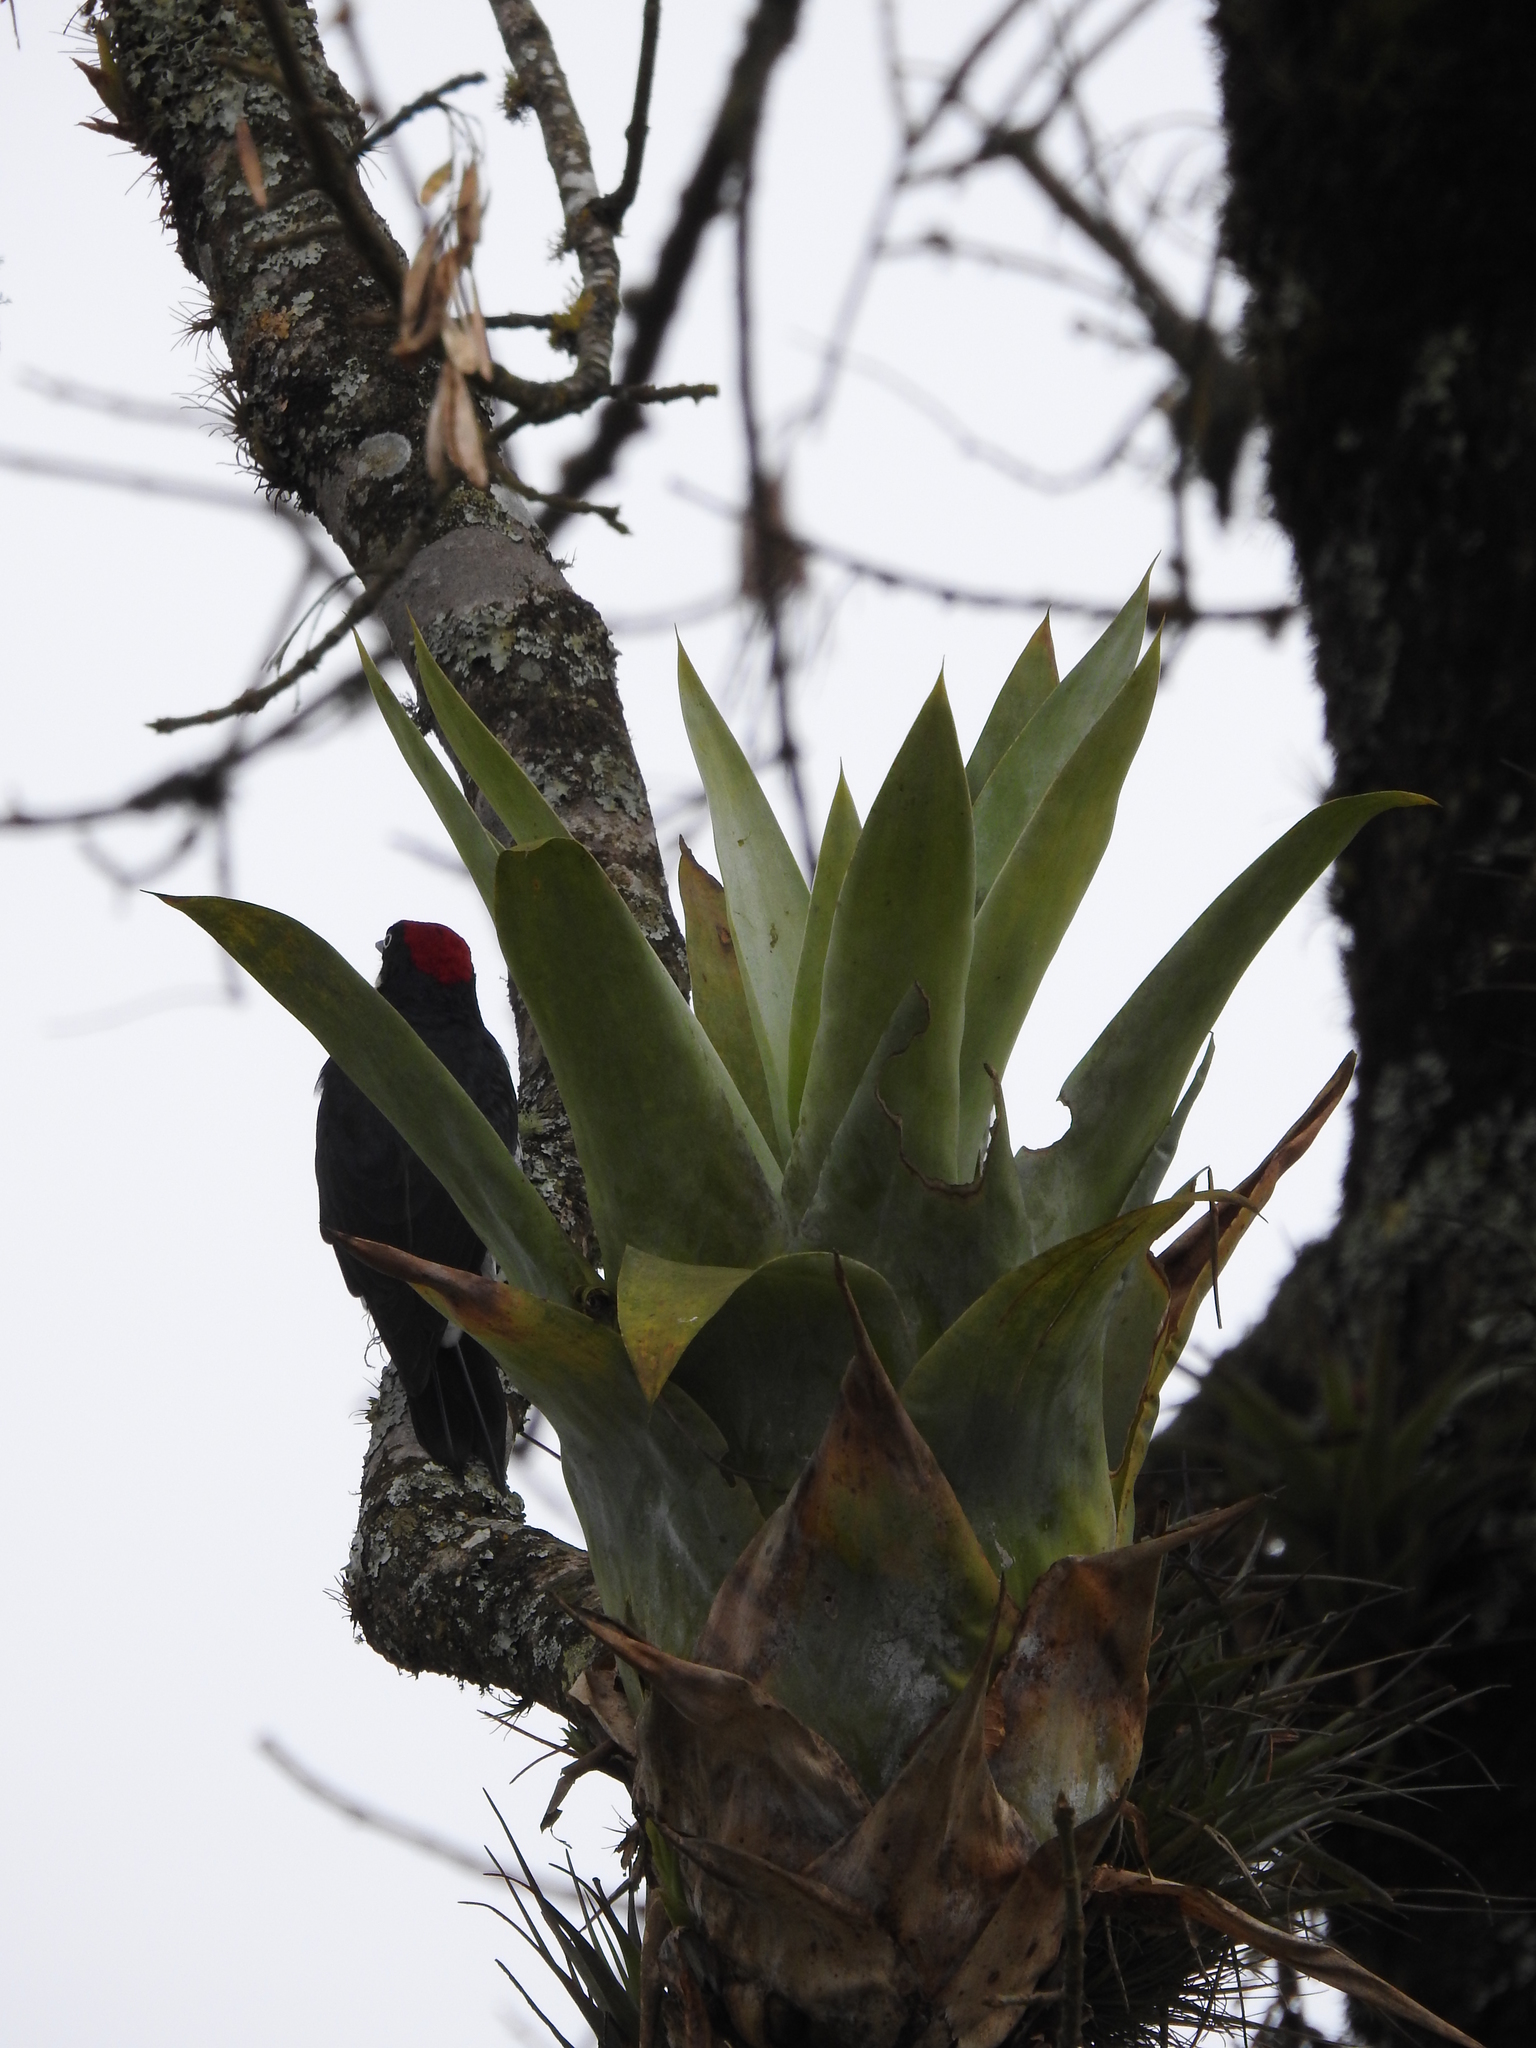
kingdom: Animalia
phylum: Chordata
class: Aves
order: Piciformes
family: Picidae
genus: Melanerpes
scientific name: Melanerpes formicivorus
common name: Acorn woodpecker
